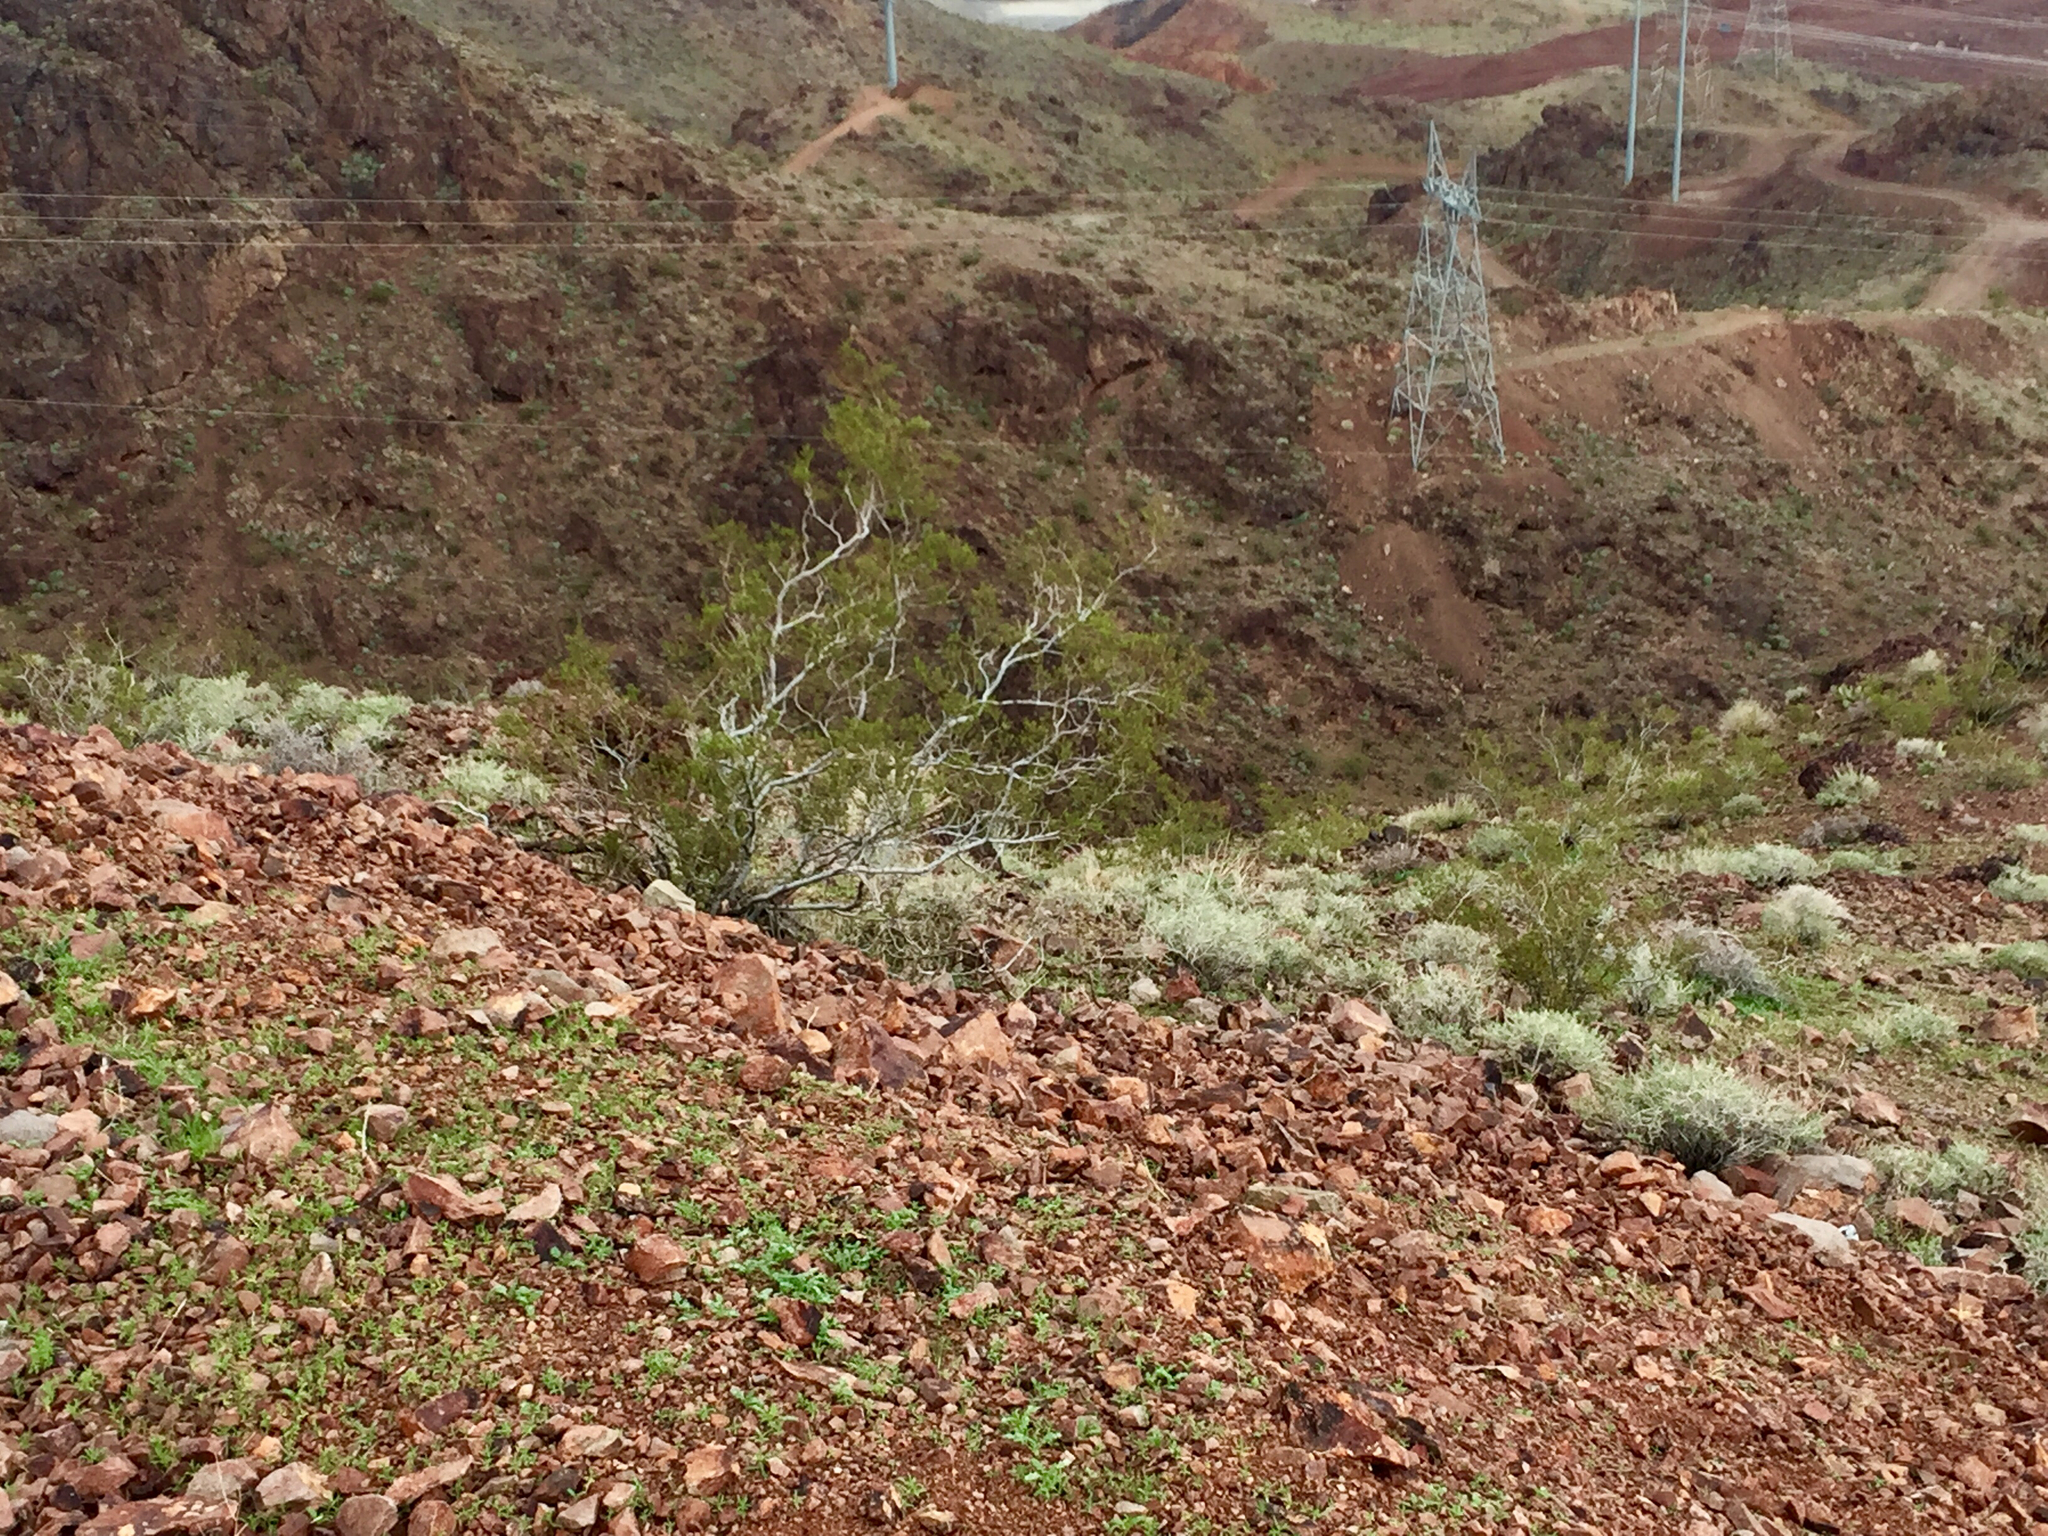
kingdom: Plantae
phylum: Tracheophyta
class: Magnoliopsida
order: Zygophyllales
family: Zygophyllaceae
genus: Larrea
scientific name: Larrea tridentata
